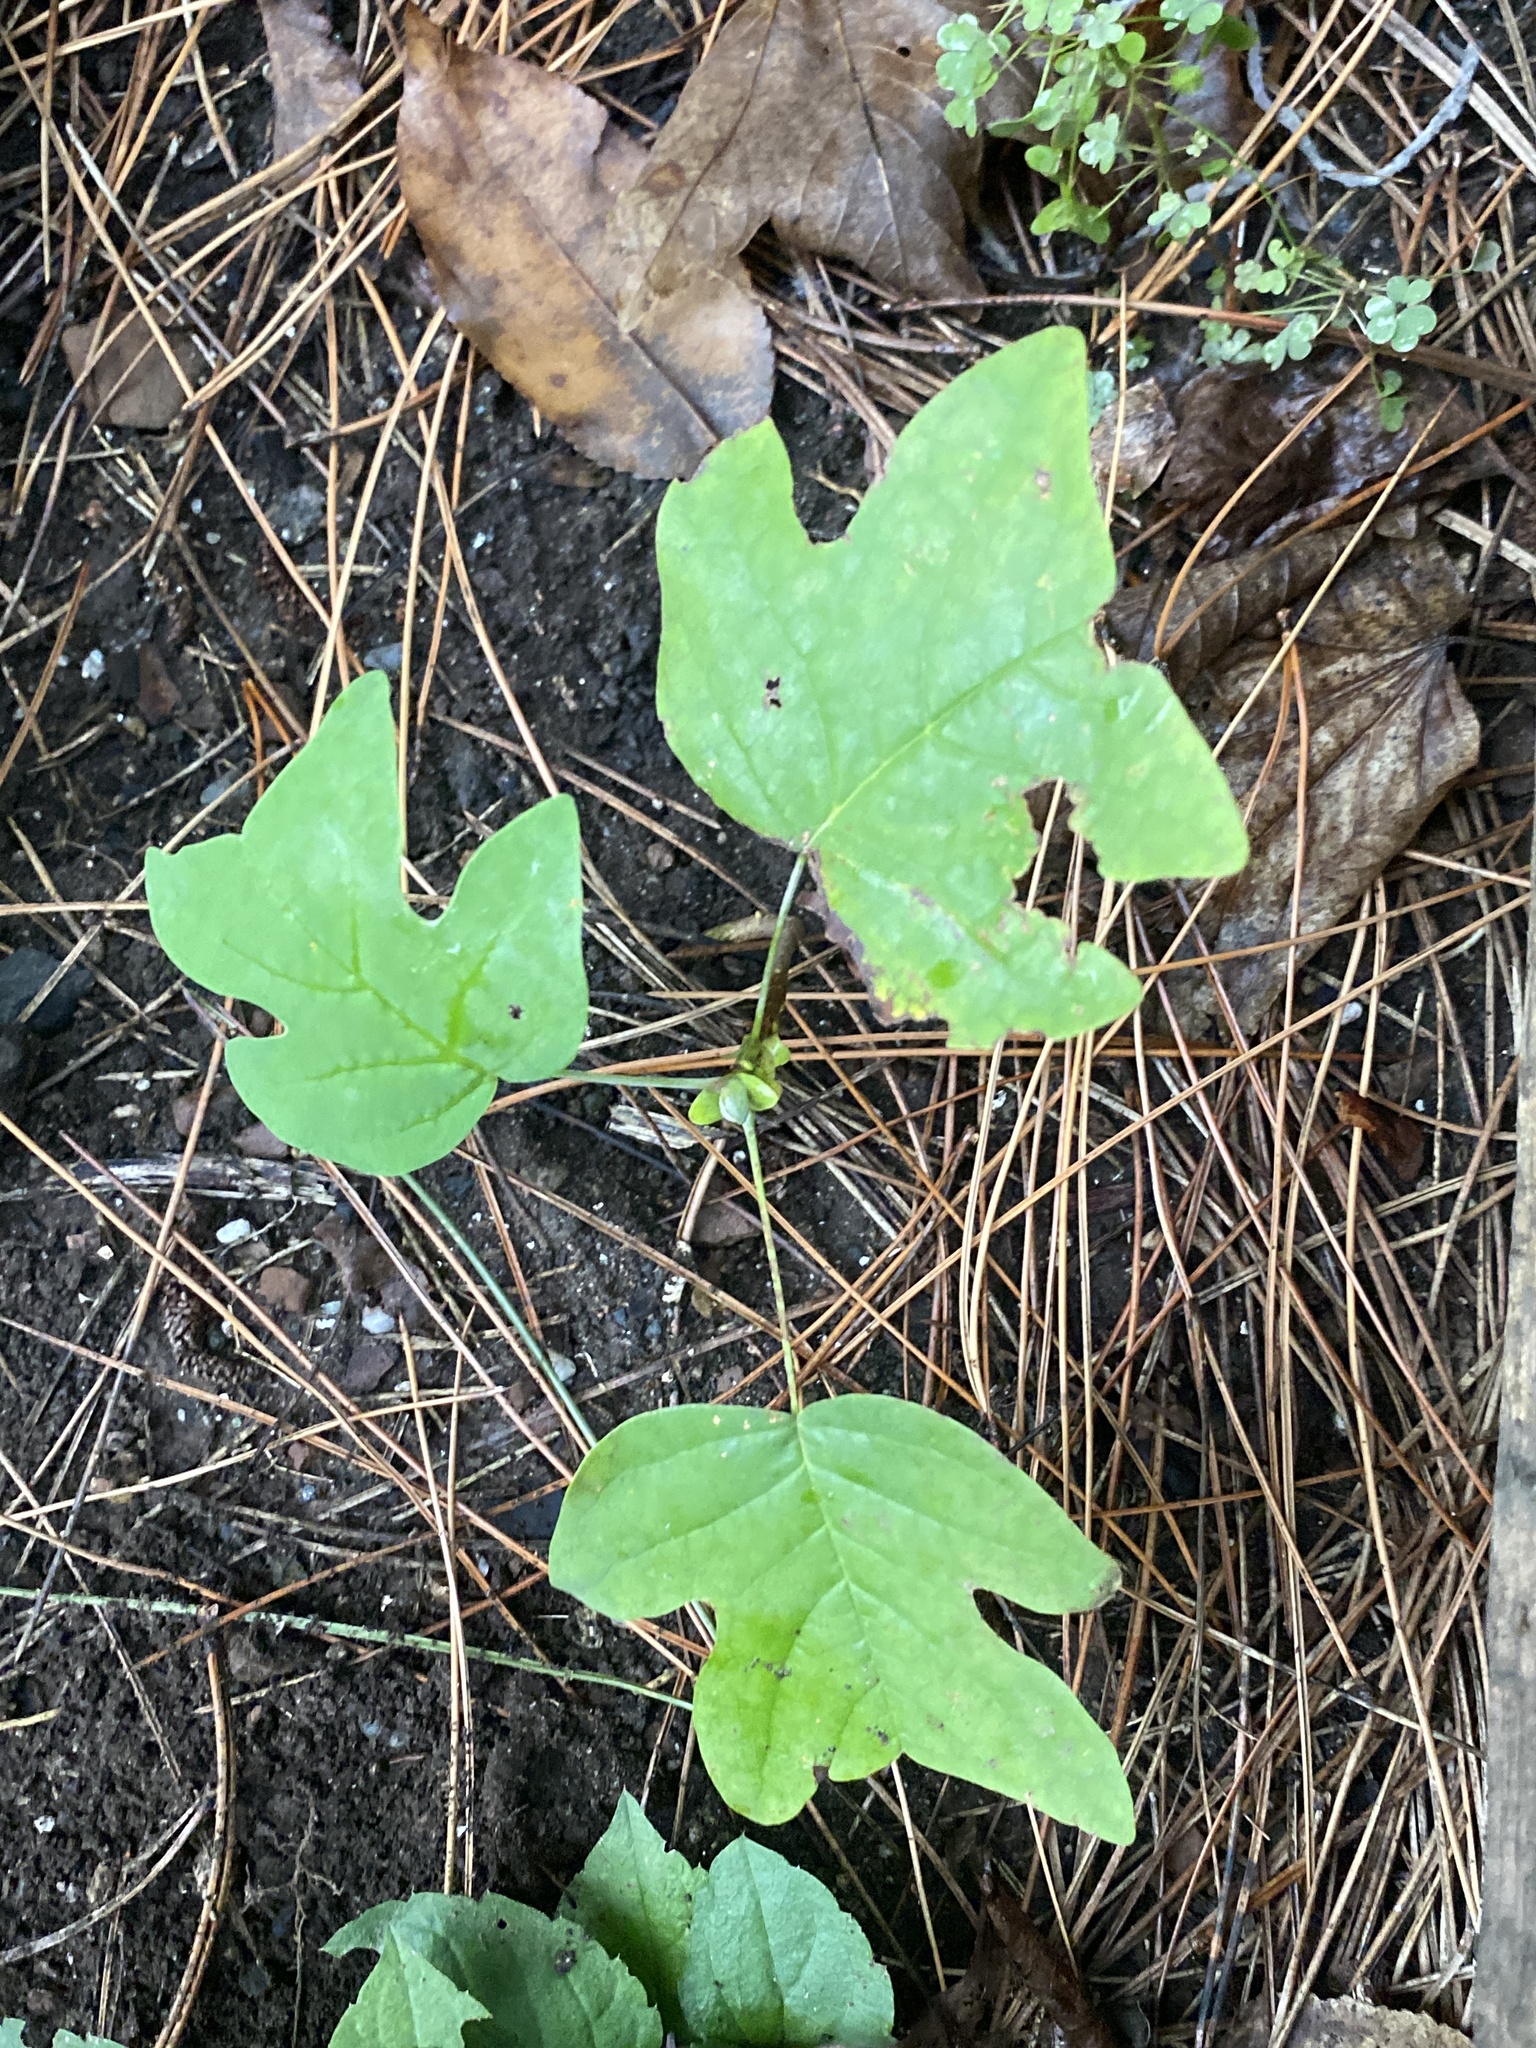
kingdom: Plantae
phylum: Tracheophyta
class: Magnoliopsida
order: Magnoliales
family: Magnoliaceae
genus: Liriodendron
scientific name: Liriodendron tulipifera
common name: Tulip tree
